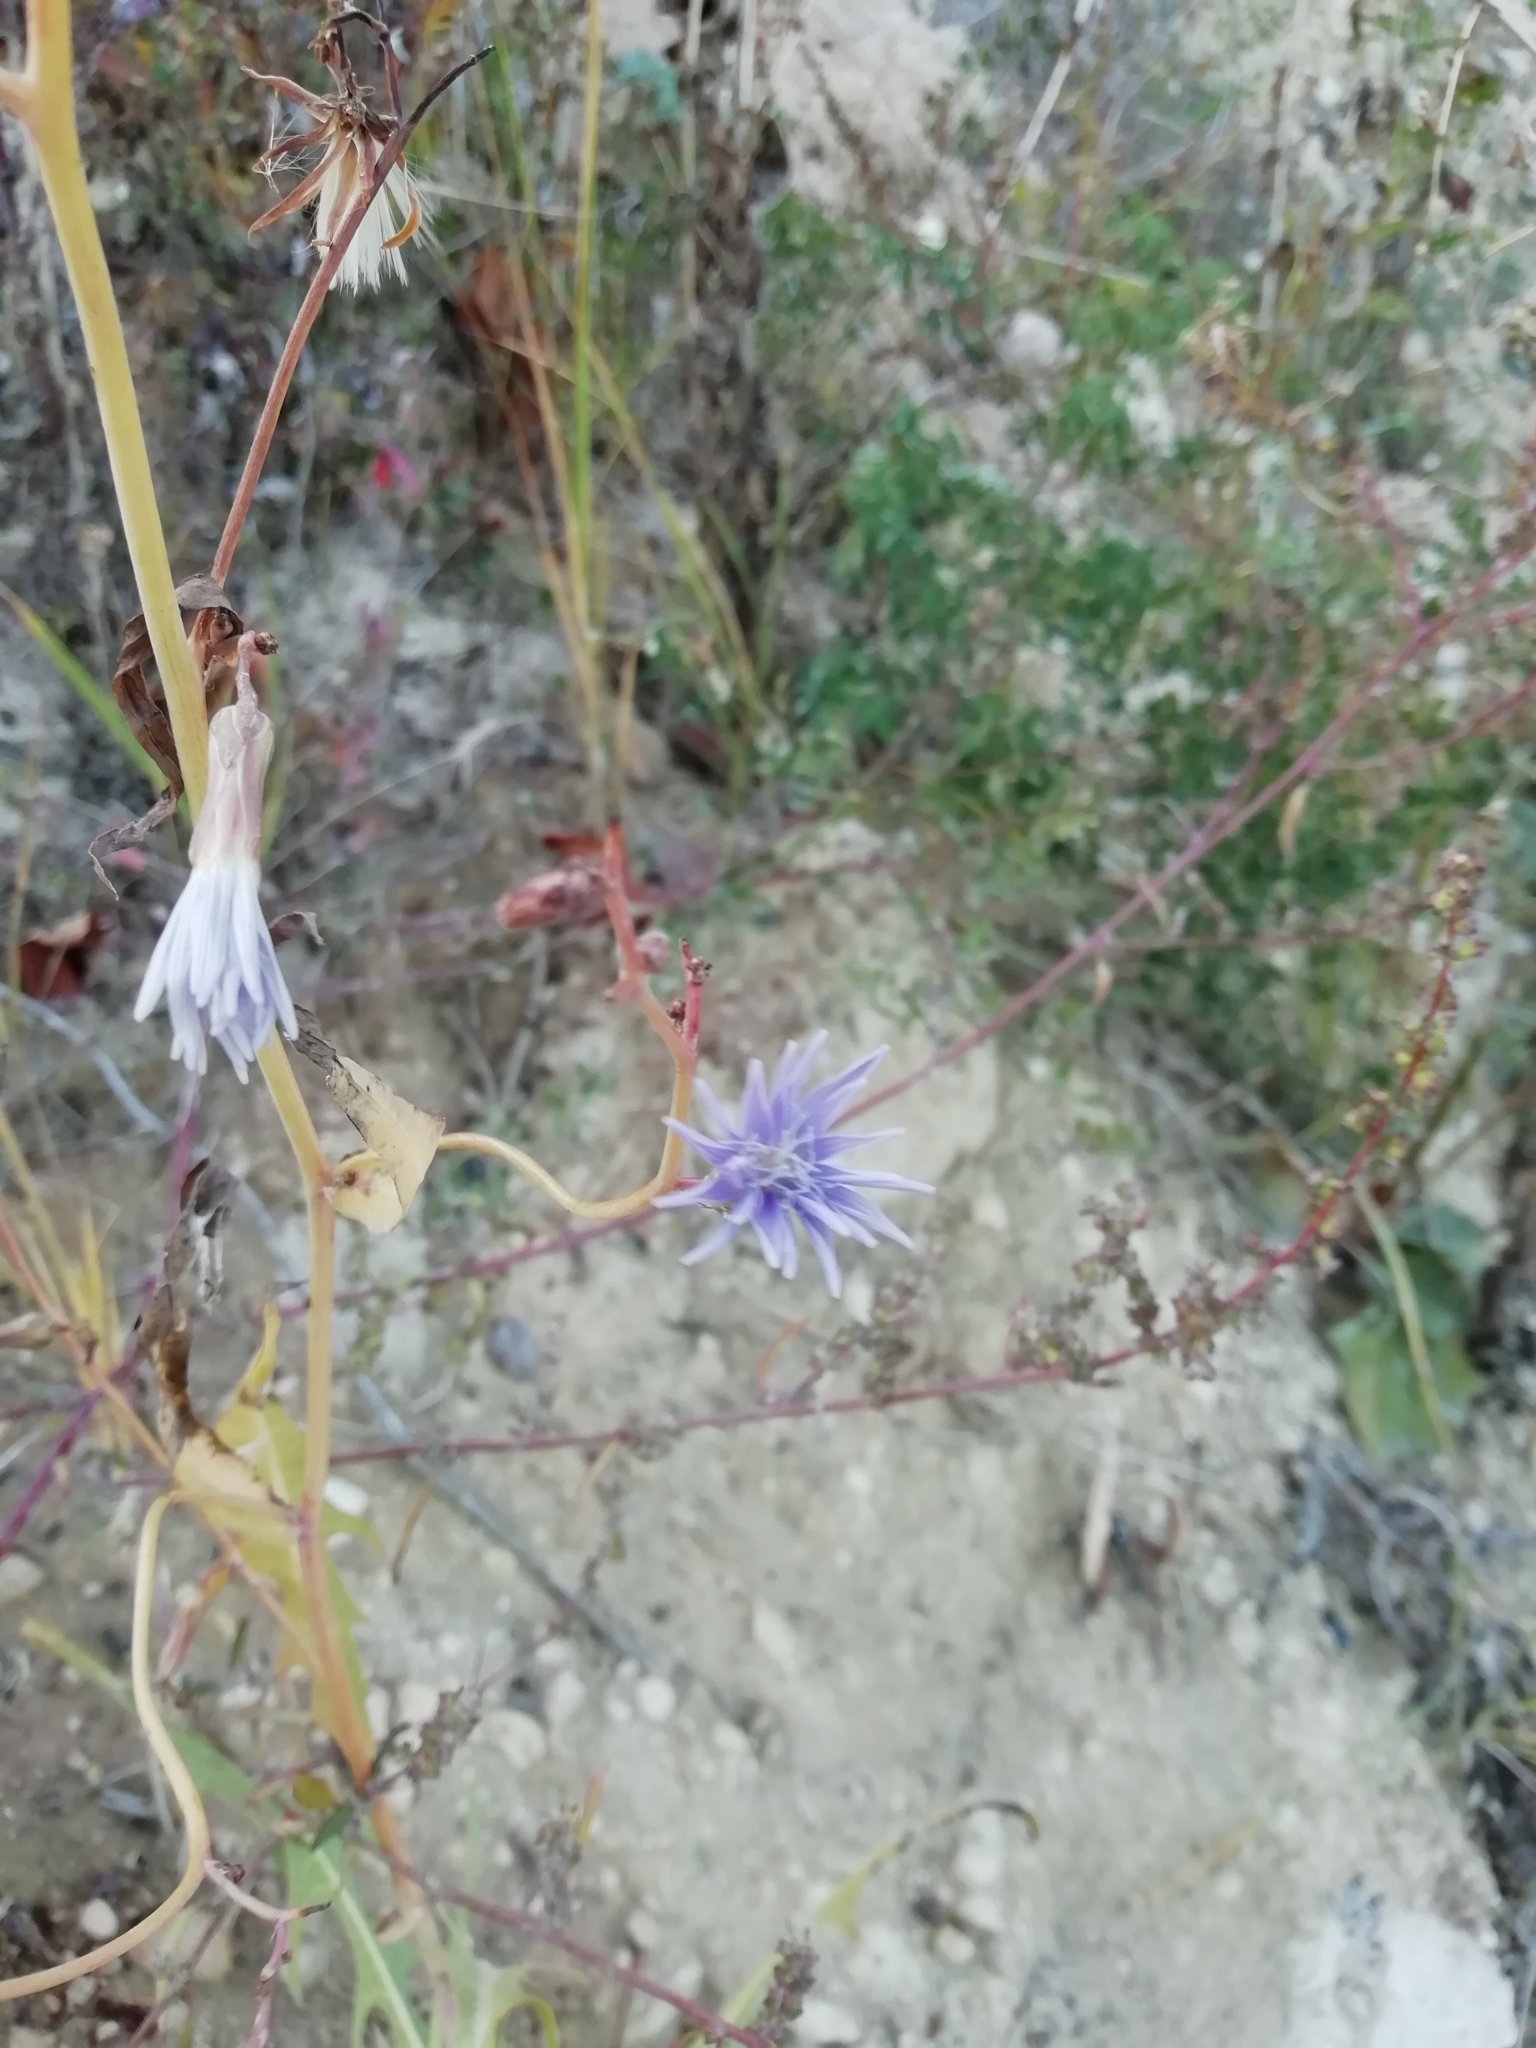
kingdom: Plantae
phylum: Tracheophyta
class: Magnoliopsida
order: Asterales
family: Asteraceae
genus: Lactuca
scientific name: Lactuca tatarica
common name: Blue lettuce
